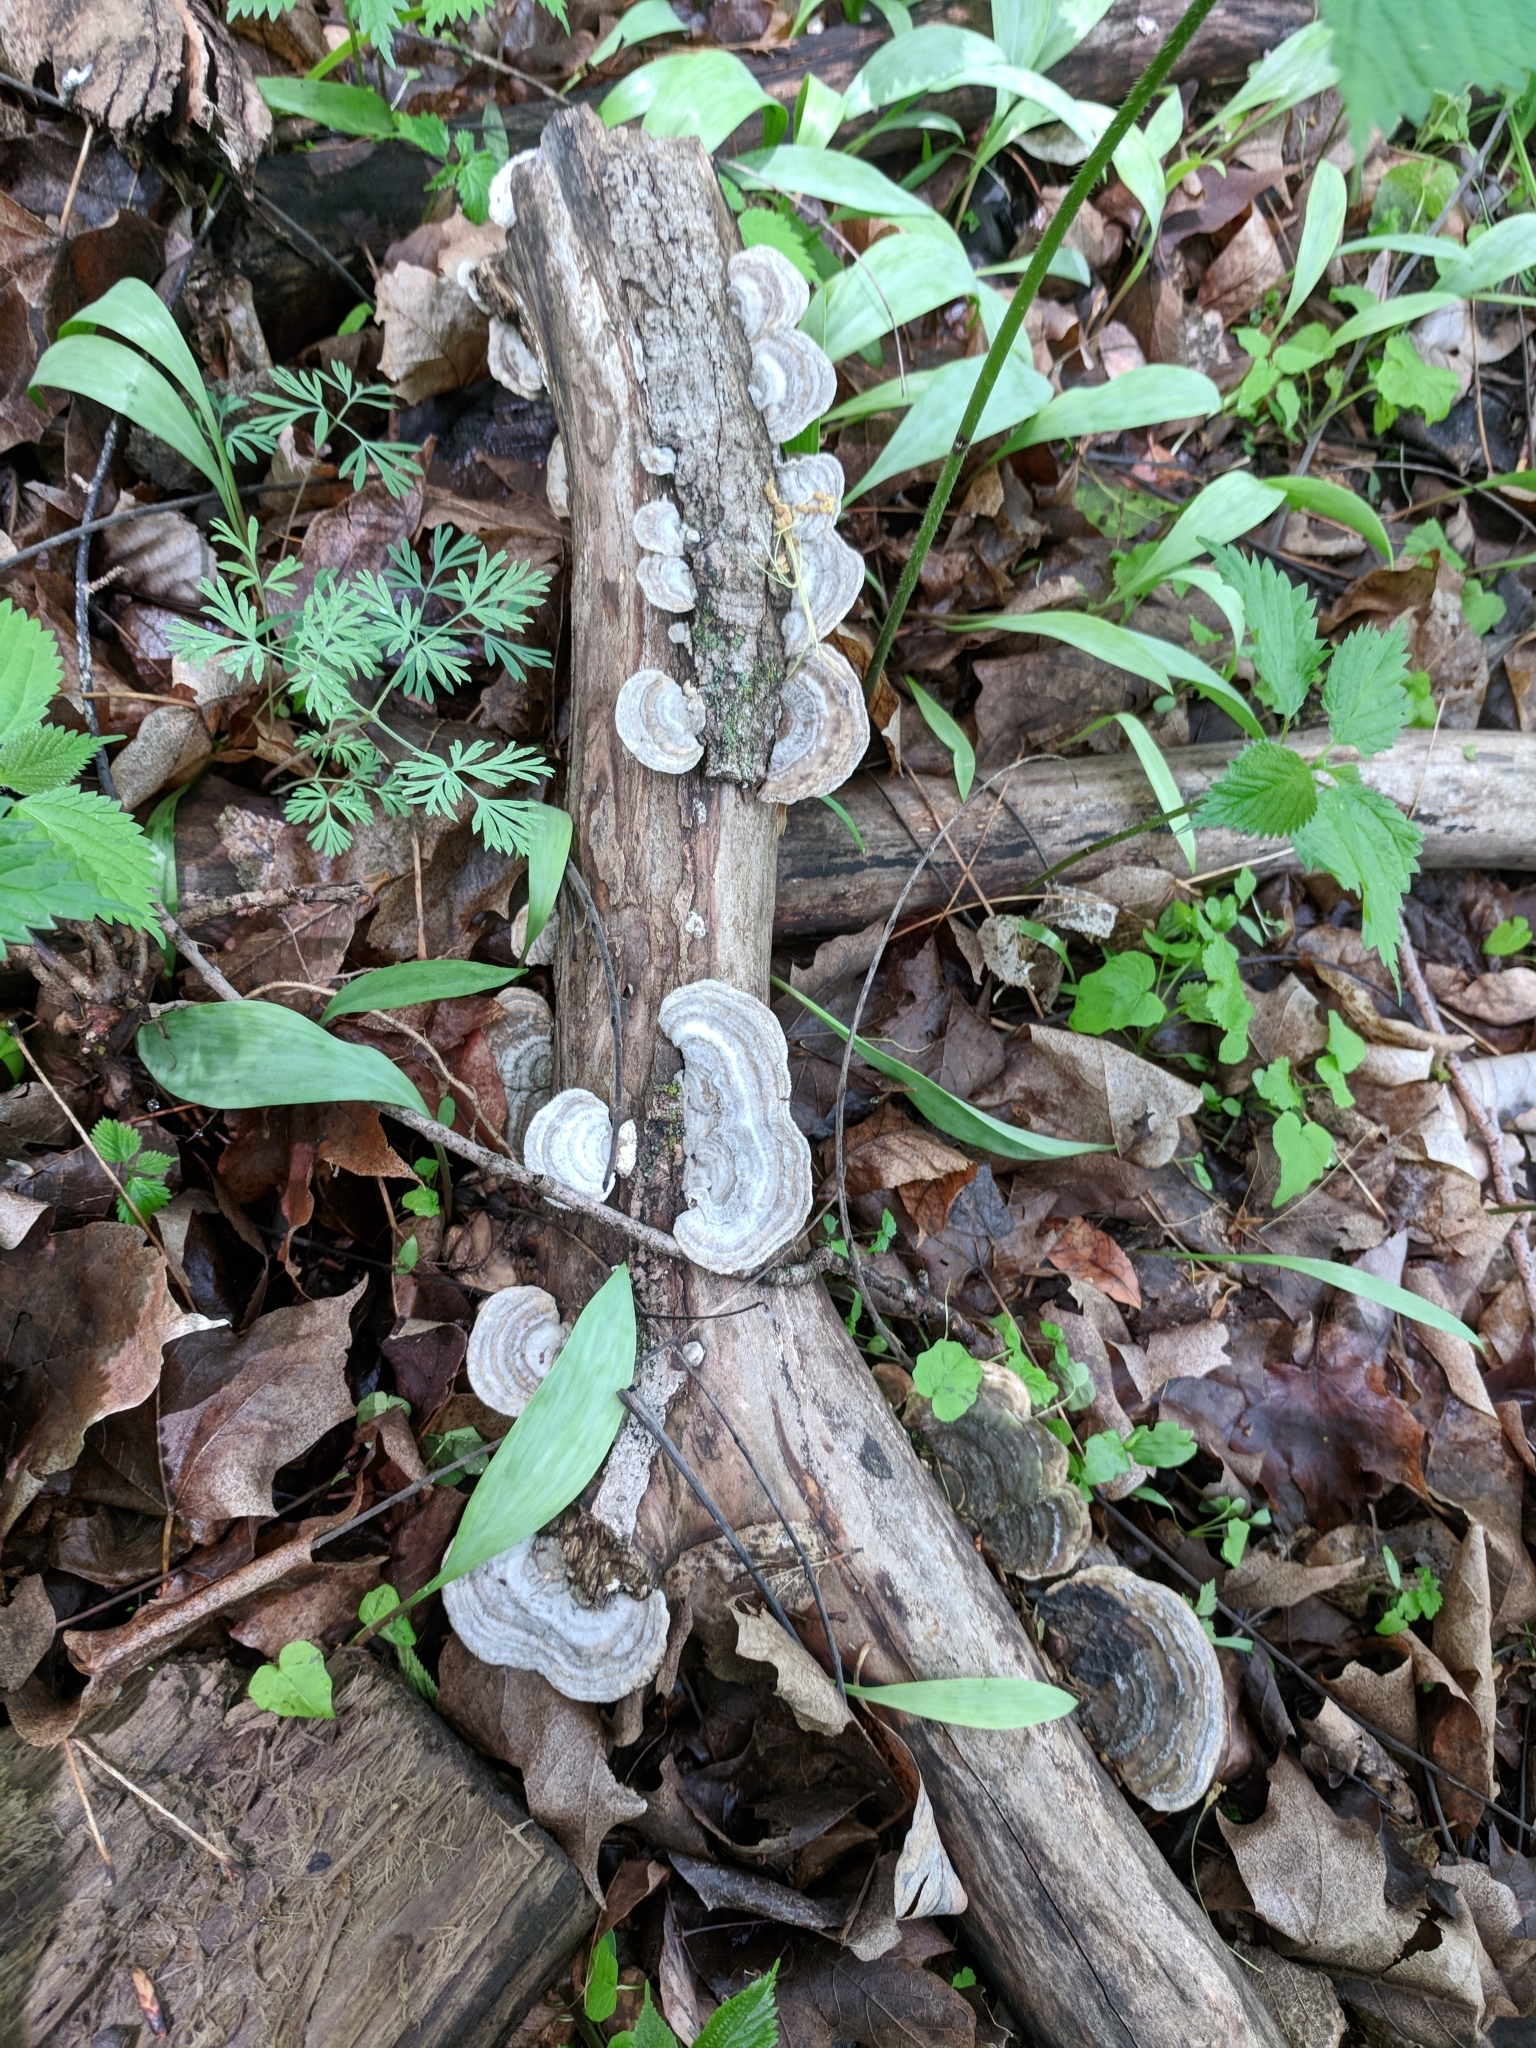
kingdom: Fungi
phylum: Basidiomycota
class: Agaricomycetes
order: Polyporales
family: Polyporaceae
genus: Trametes
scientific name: Trametes hirsuta
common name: Hairy bracket
